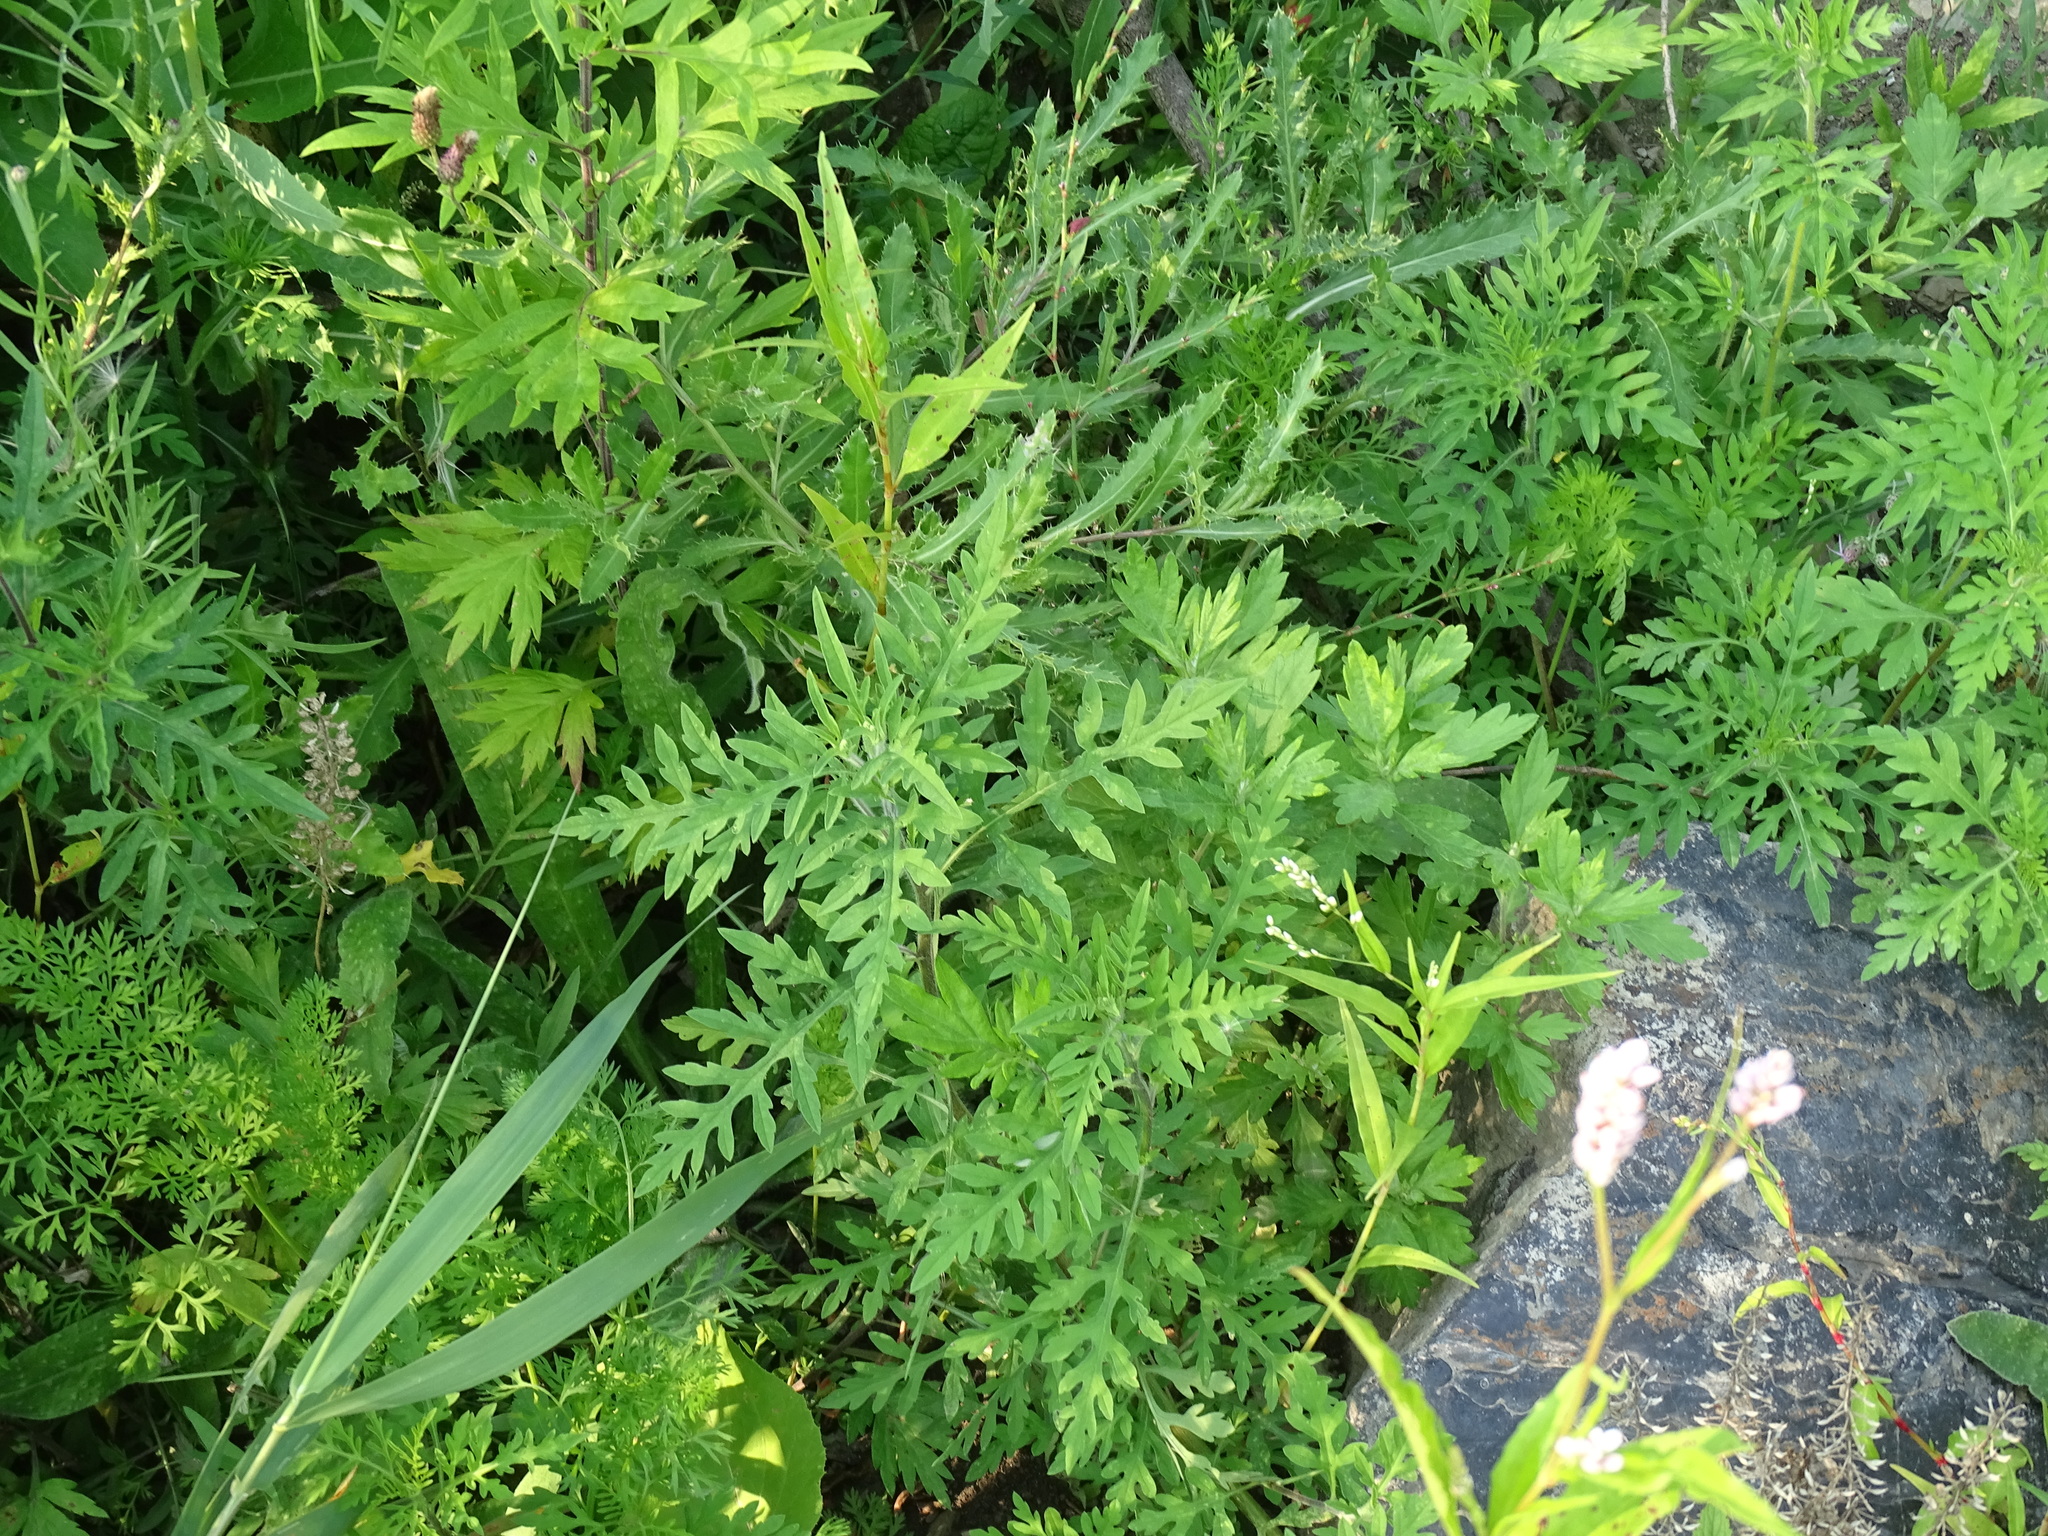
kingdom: Plantae
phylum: Tracheophyta
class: Magnoliopsida
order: Asterales
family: Asteraceae
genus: Ambrosia
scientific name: Ambrosia artemisiifolia
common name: Annual ragweed
